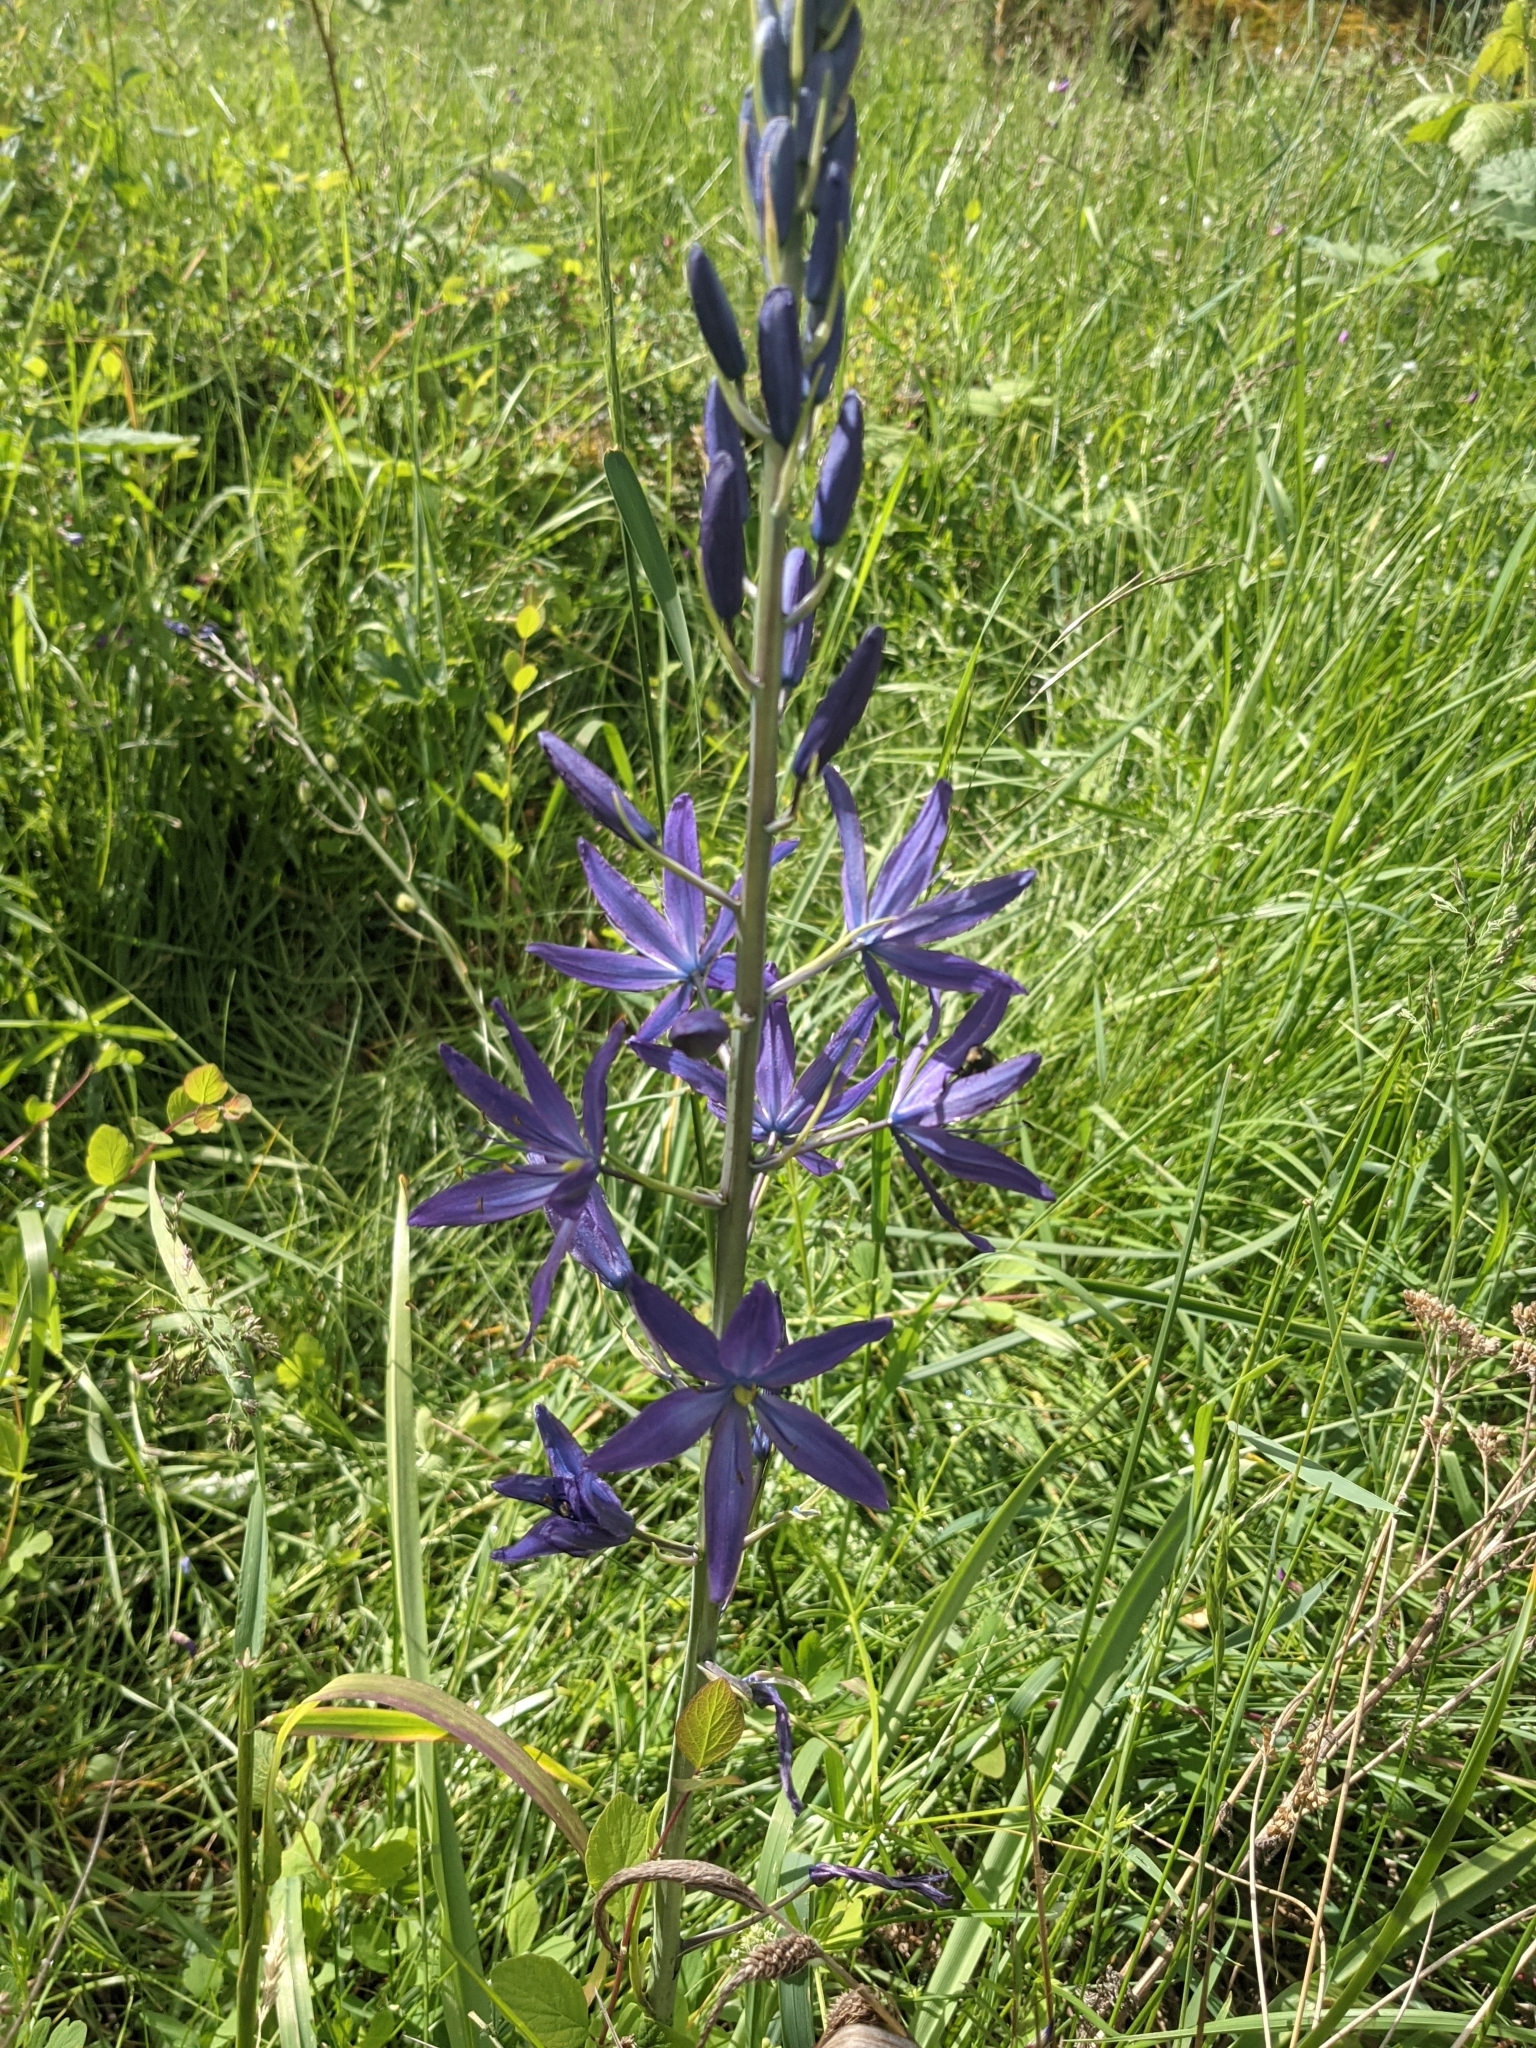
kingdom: Plantae
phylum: Tracheophyta
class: Liliopsida
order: Asparagales
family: Asparagaceae
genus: Camassia
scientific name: Camassia leichtlinii
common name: Leichtlin's camas
